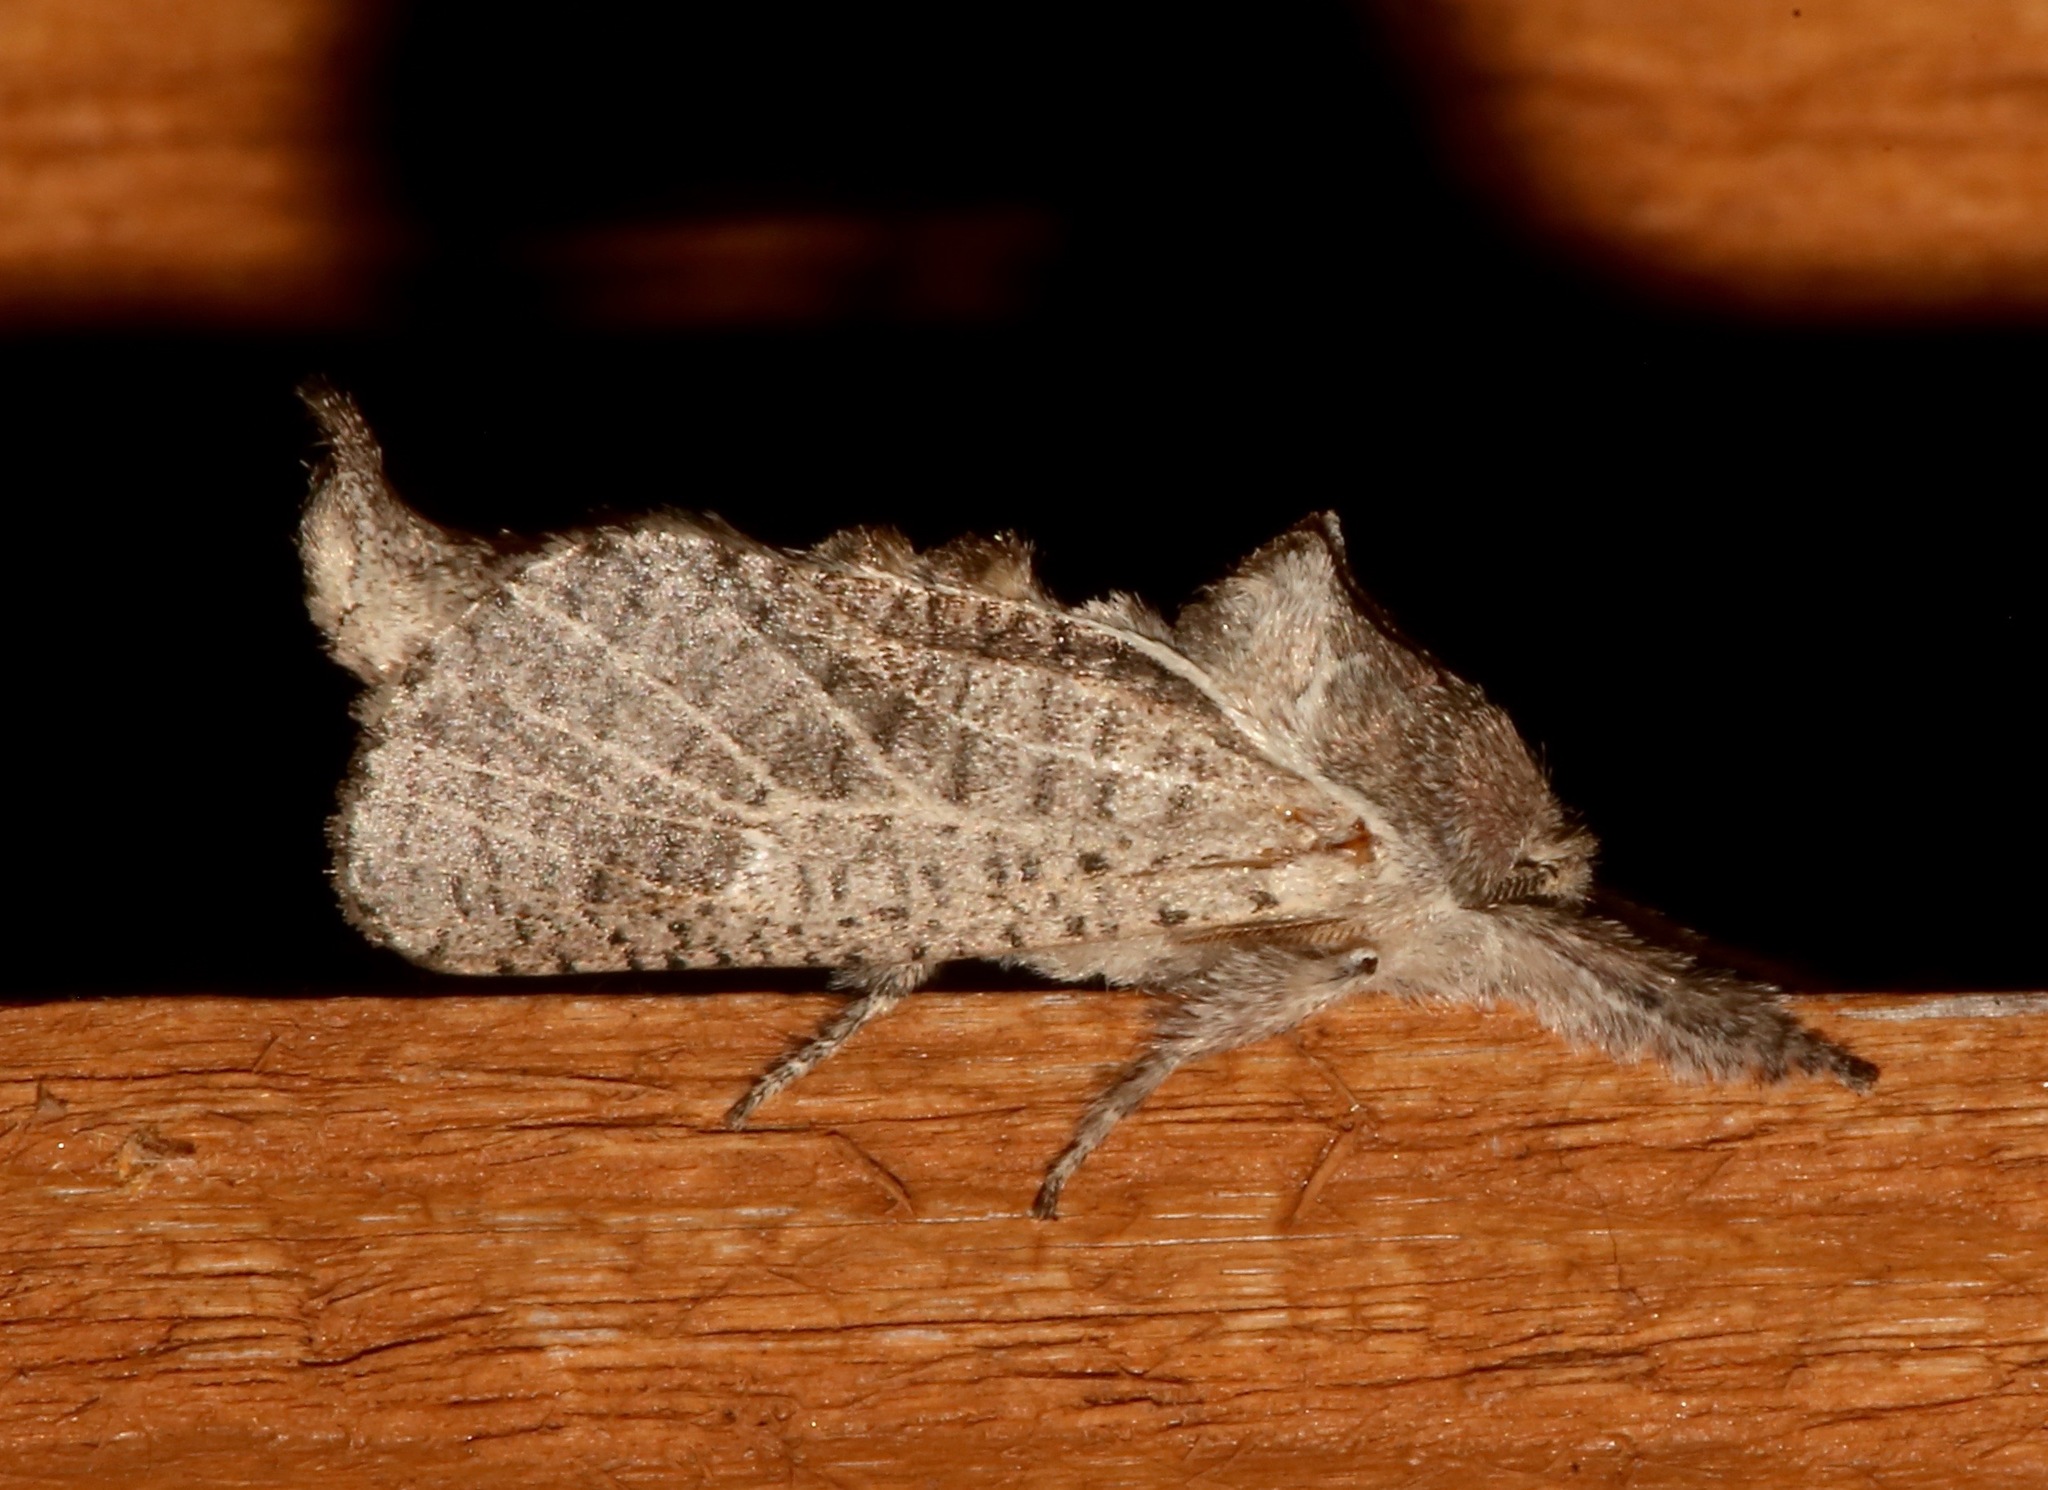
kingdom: Animalia
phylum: Arthropoda
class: Insecta
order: Lepidoptera
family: Cossidae
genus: Givira
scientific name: Givira anna
